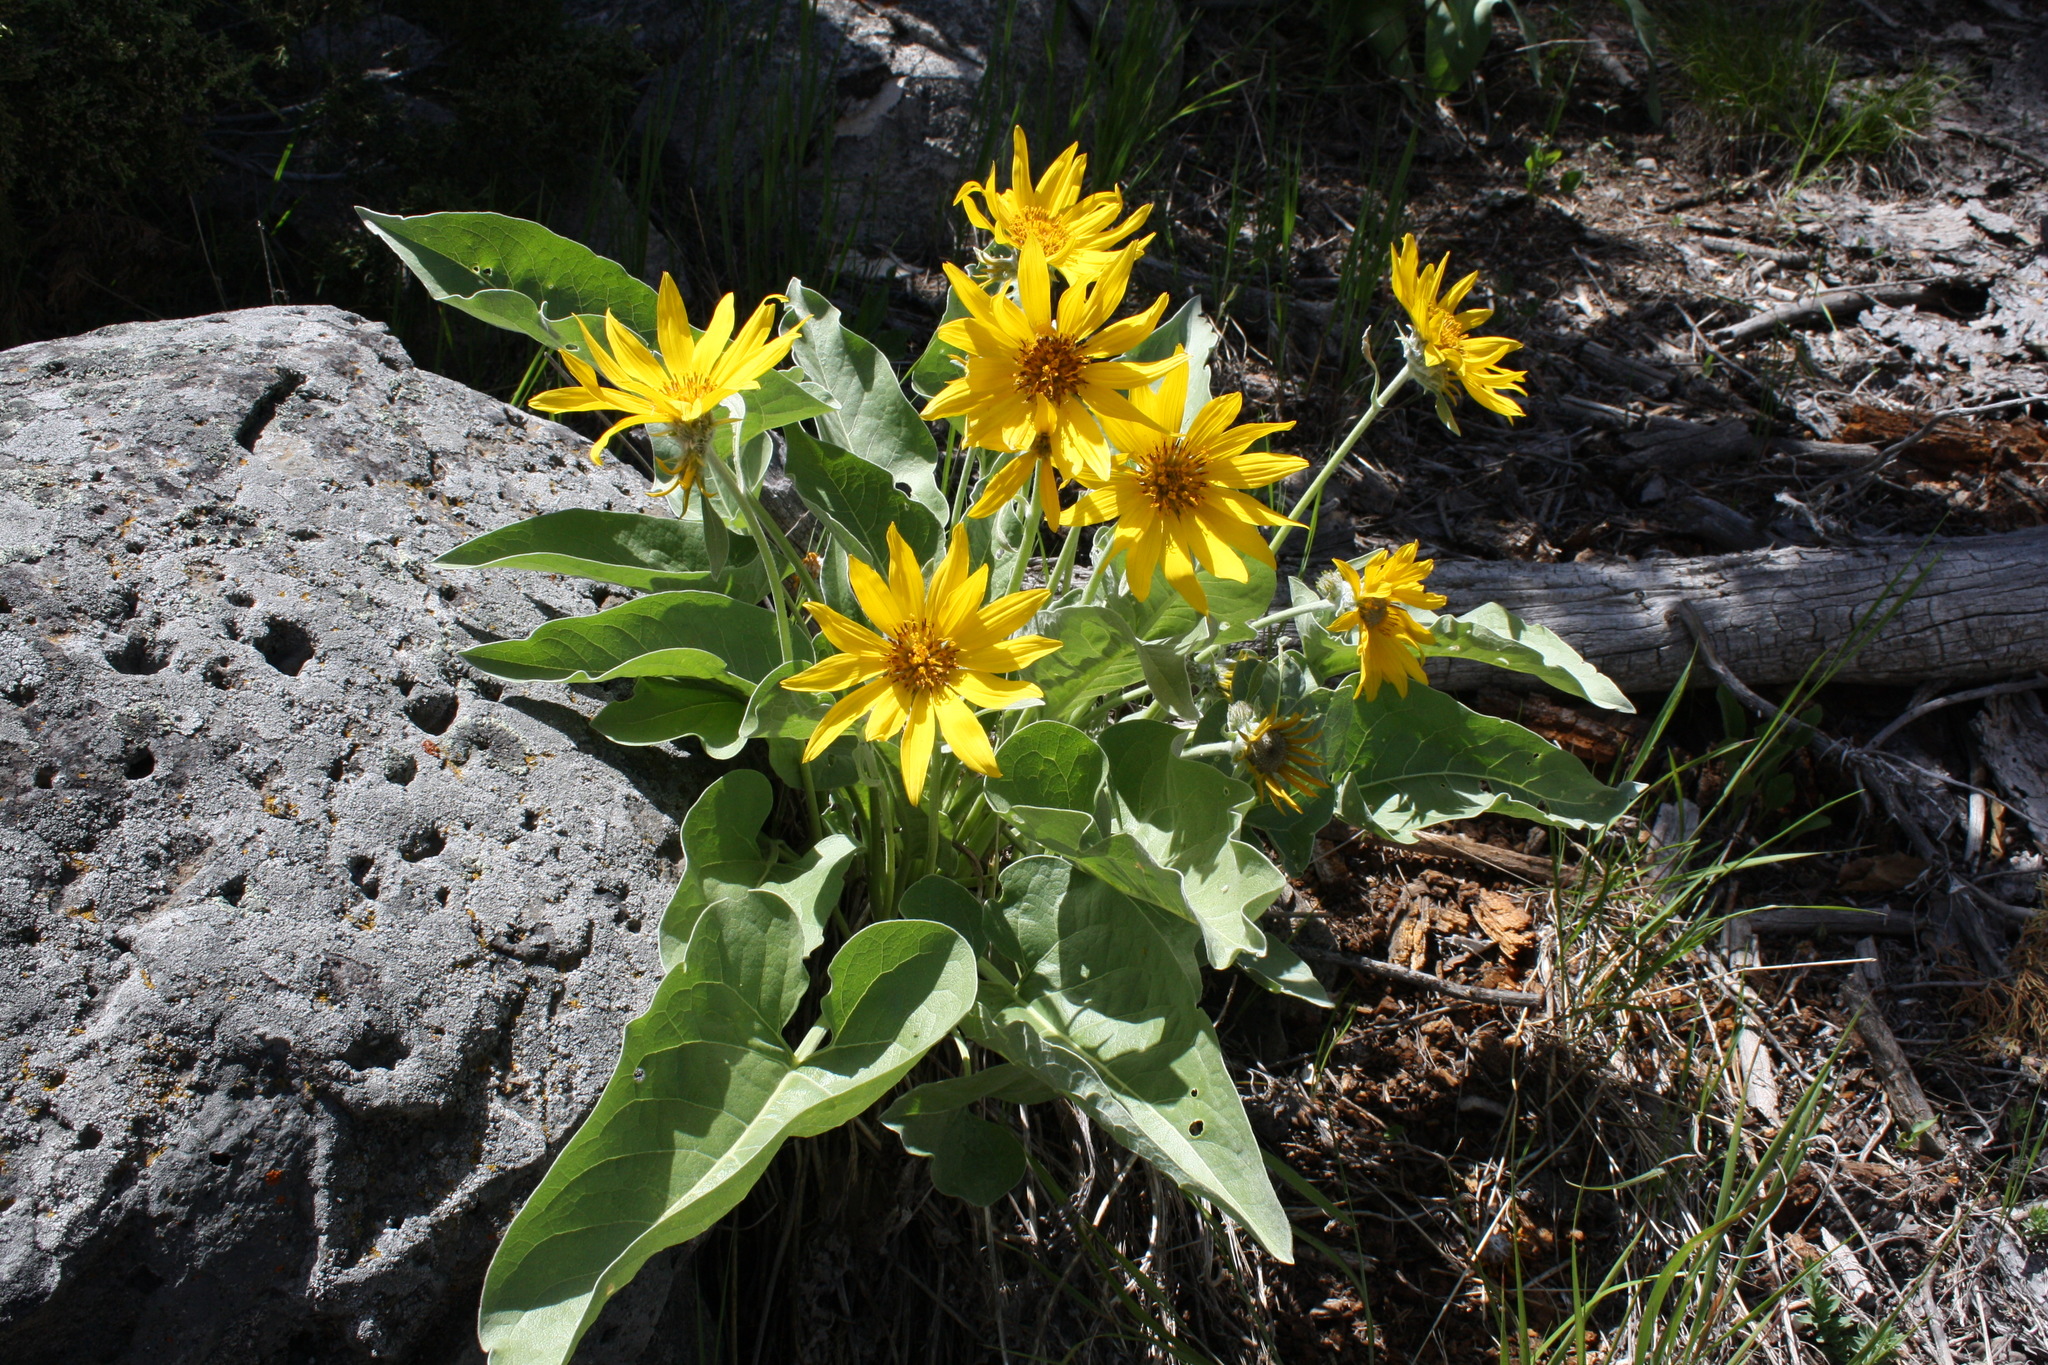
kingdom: Plantae
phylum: Tracheophyta
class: Magnoliopsida
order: Asterales
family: Asteraceae
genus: Wyethia
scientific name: Wyethia sagittata
